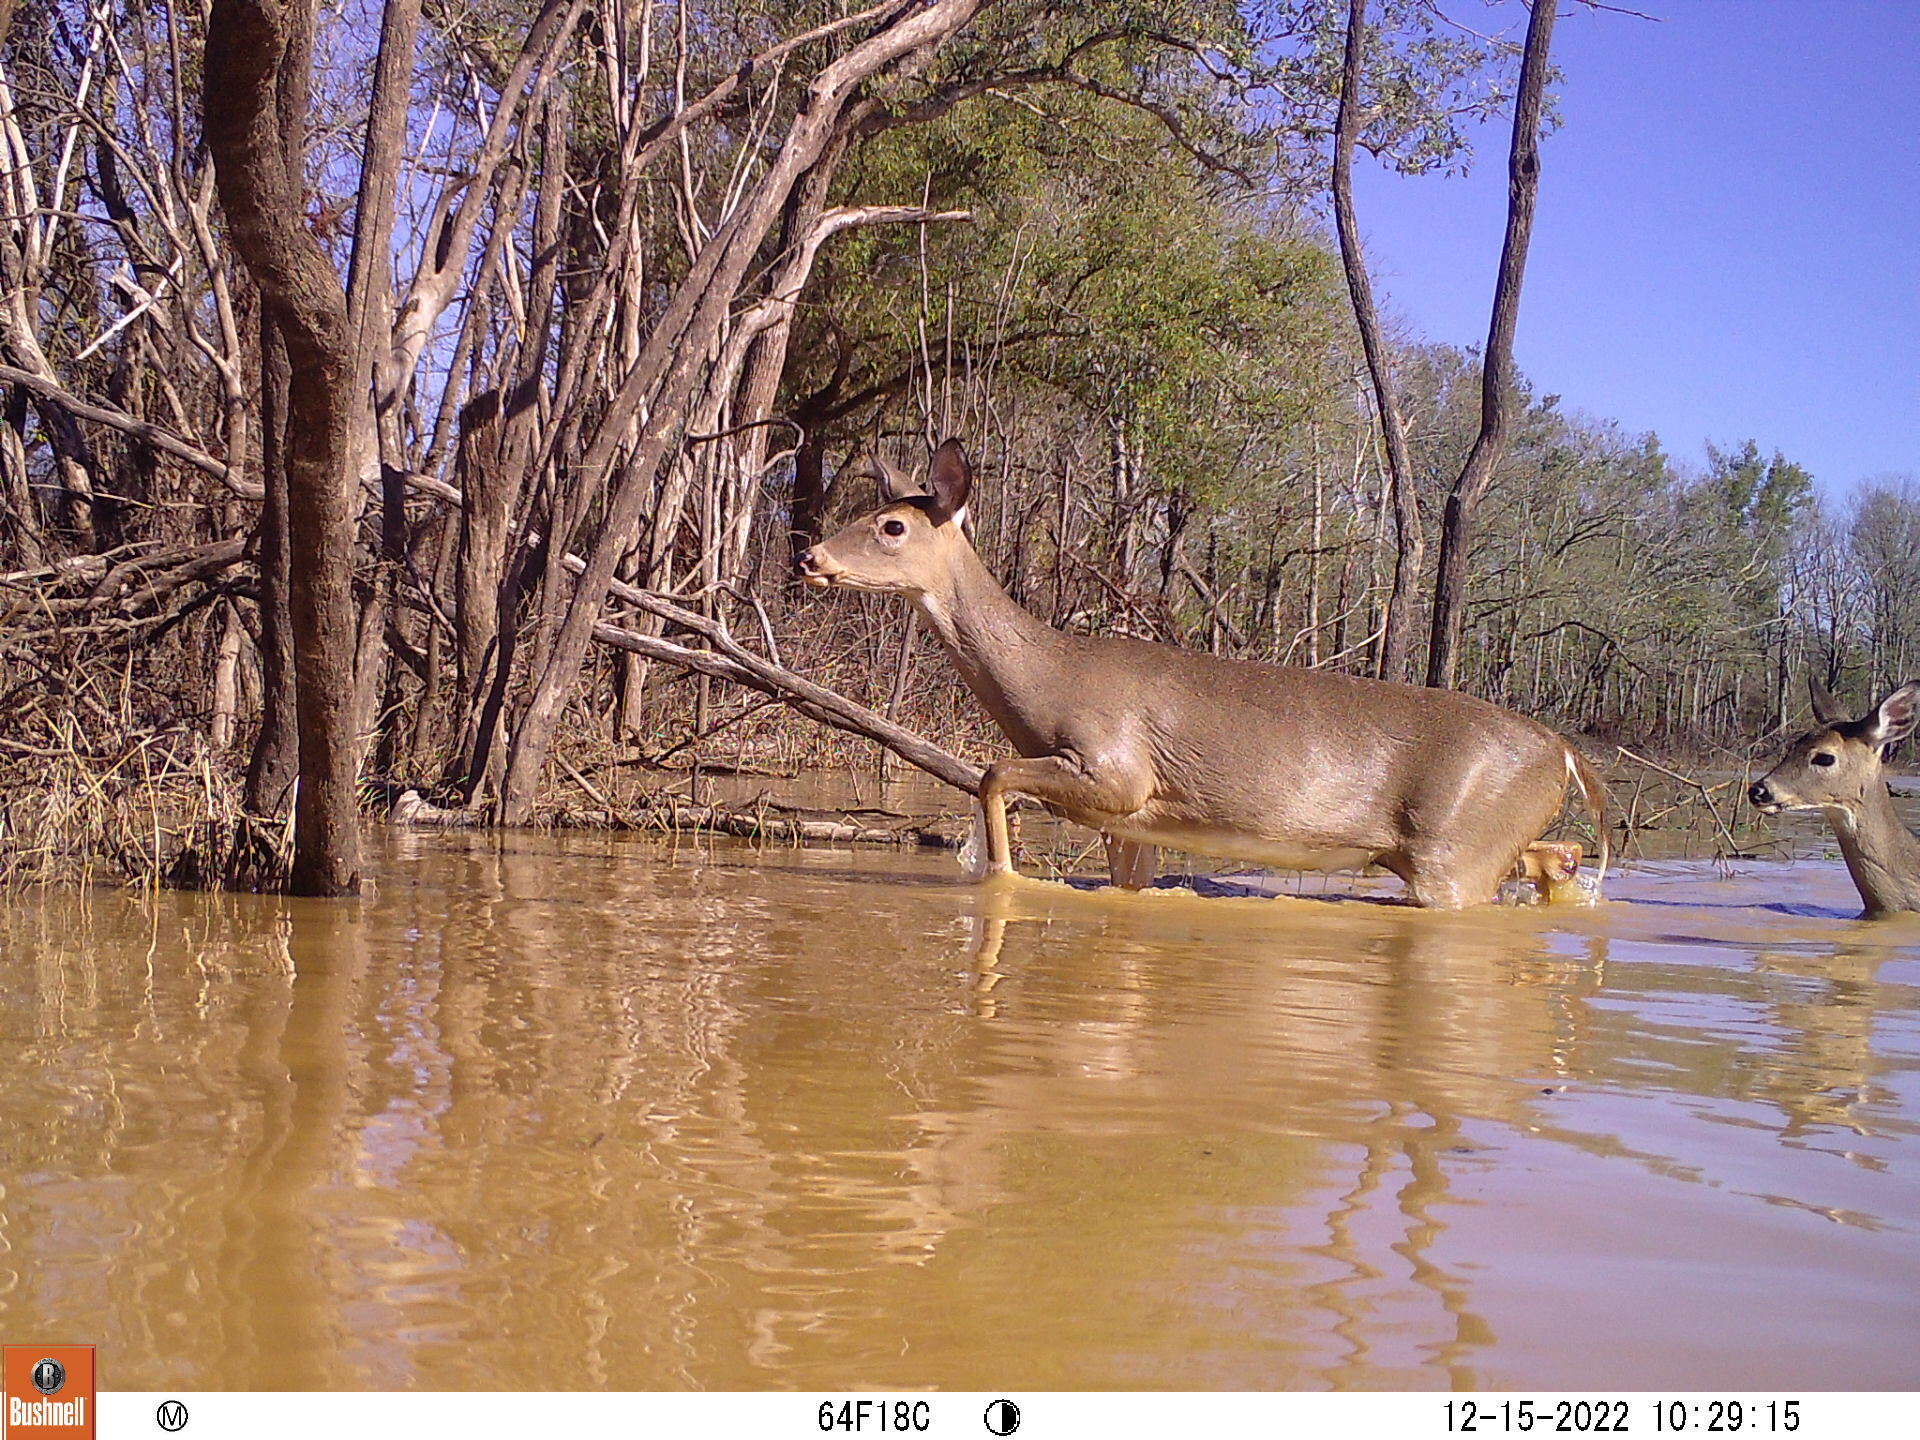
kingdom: Animalia
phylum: Chordata
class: Mammalia
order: Artiodactyla
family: Cervidae
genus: Odocoileus
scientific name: Odocoileus virginianus
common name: White-tailed deer
